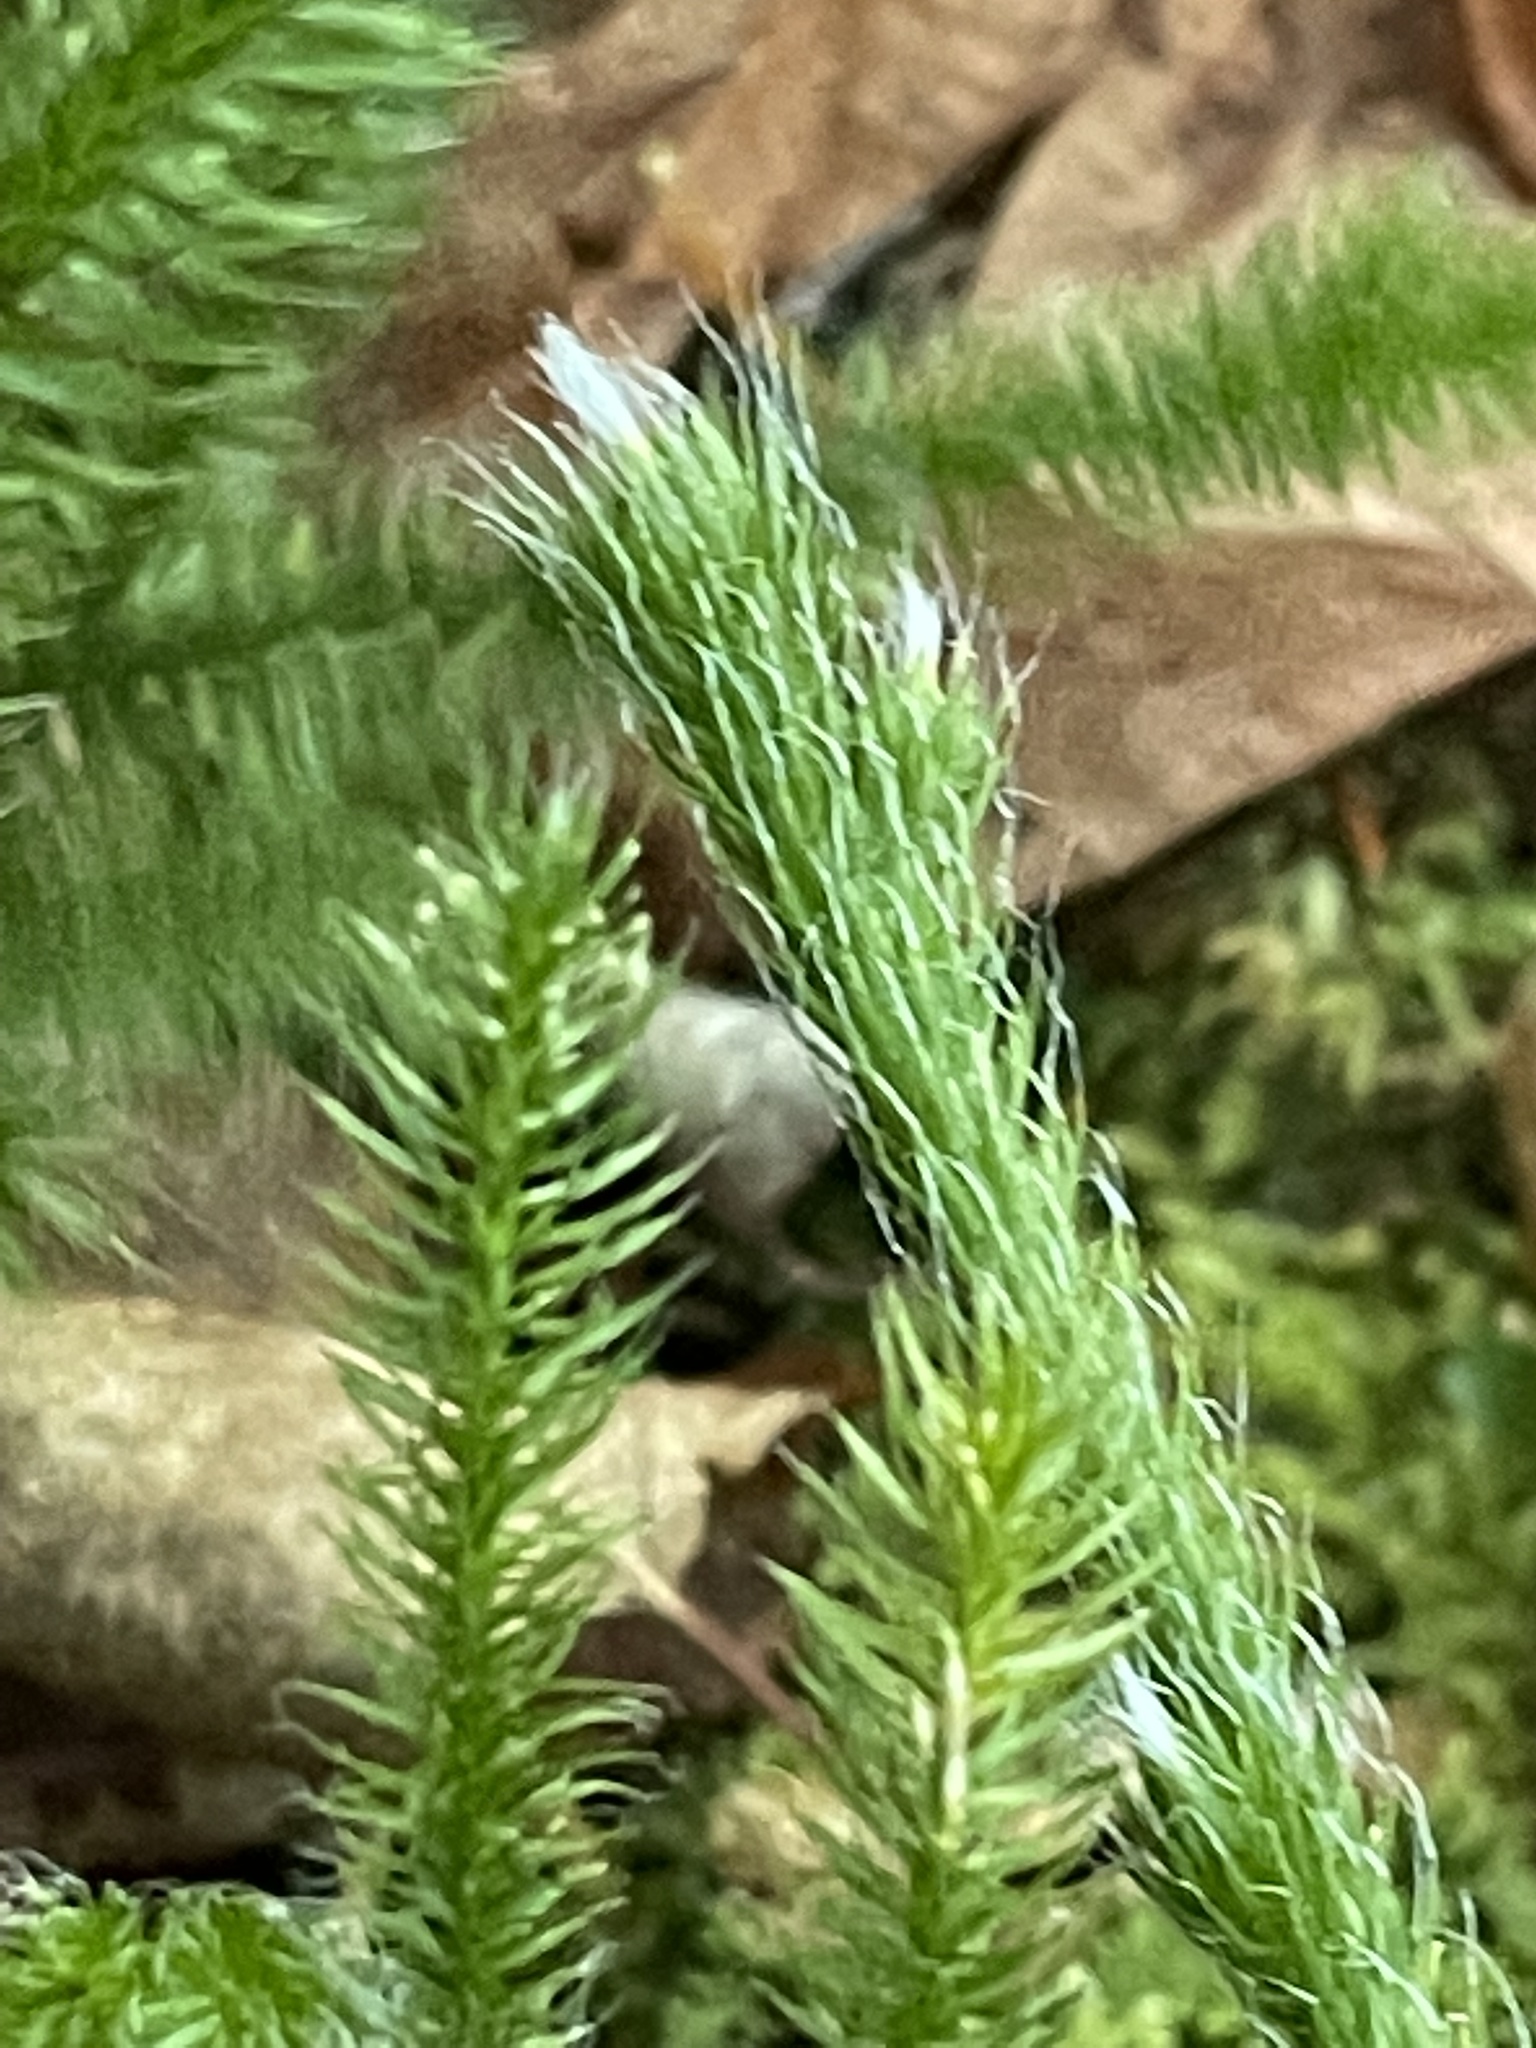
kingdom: Plantae
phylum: Tracheophyta
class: Lycopodiopsida
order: Lycopodiales
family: Lycopodiaceae
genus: Lycopodium
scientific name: Lycopodium clavatum
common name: Stag's-horn clubmoss
